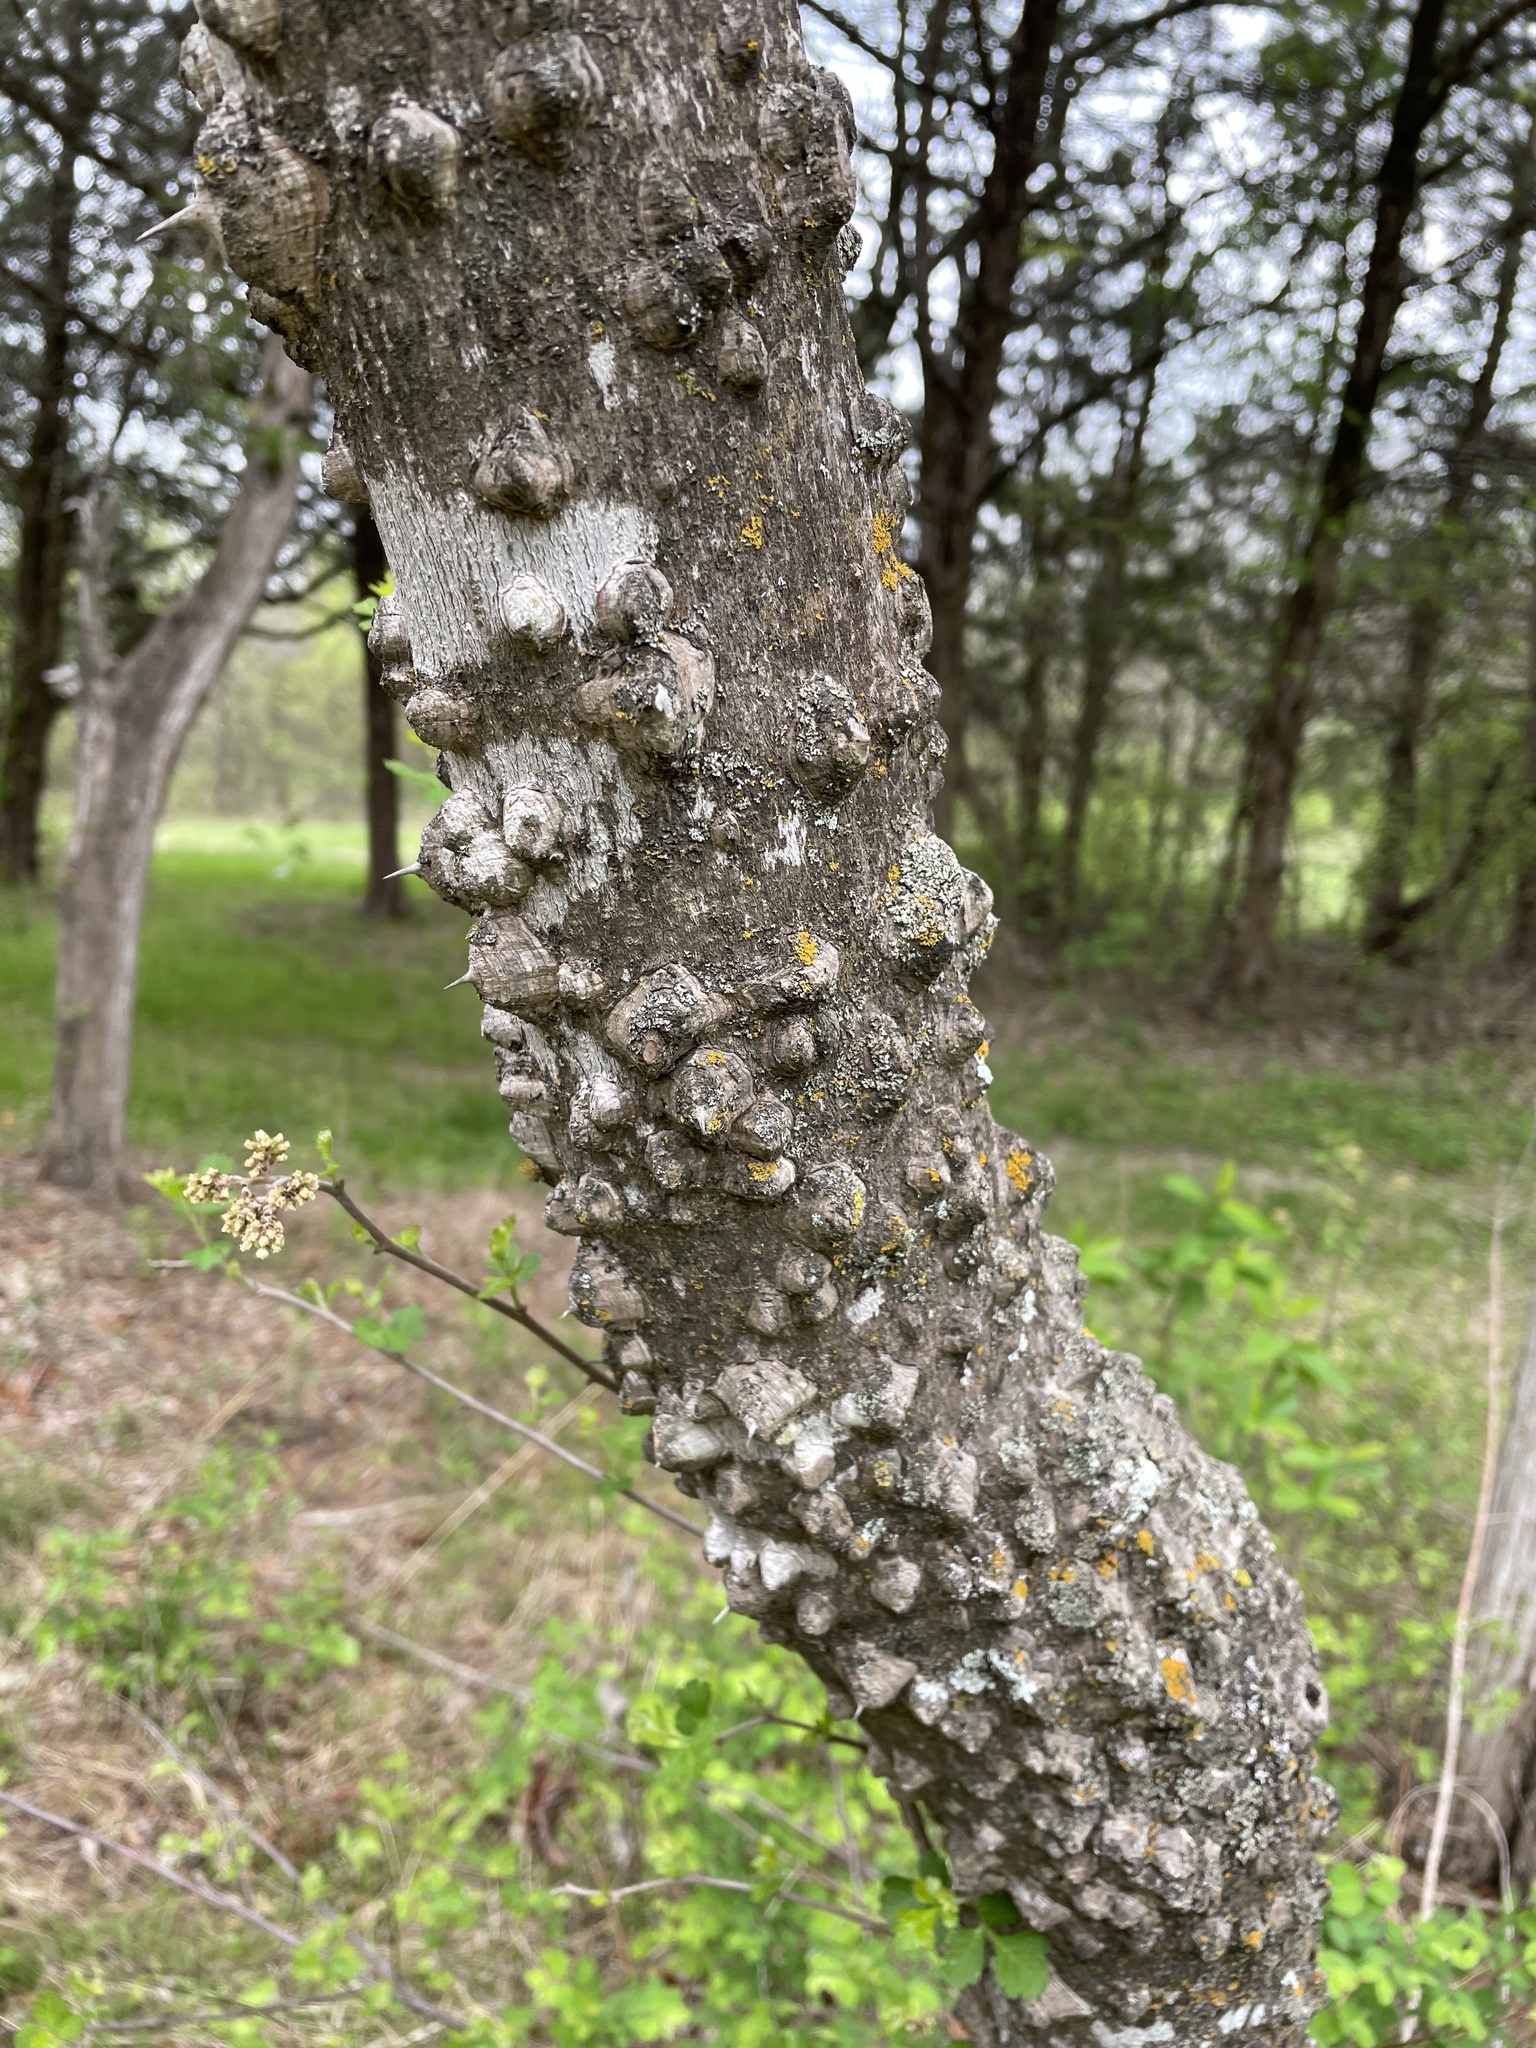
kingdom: Plantae
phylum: Tracheophyta
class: Magnoliopsida
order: Sapindales
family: Rutaceae
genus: Zanthoxylum
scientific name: Zanthoxylum clava-herculis
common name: Hercules'-club
